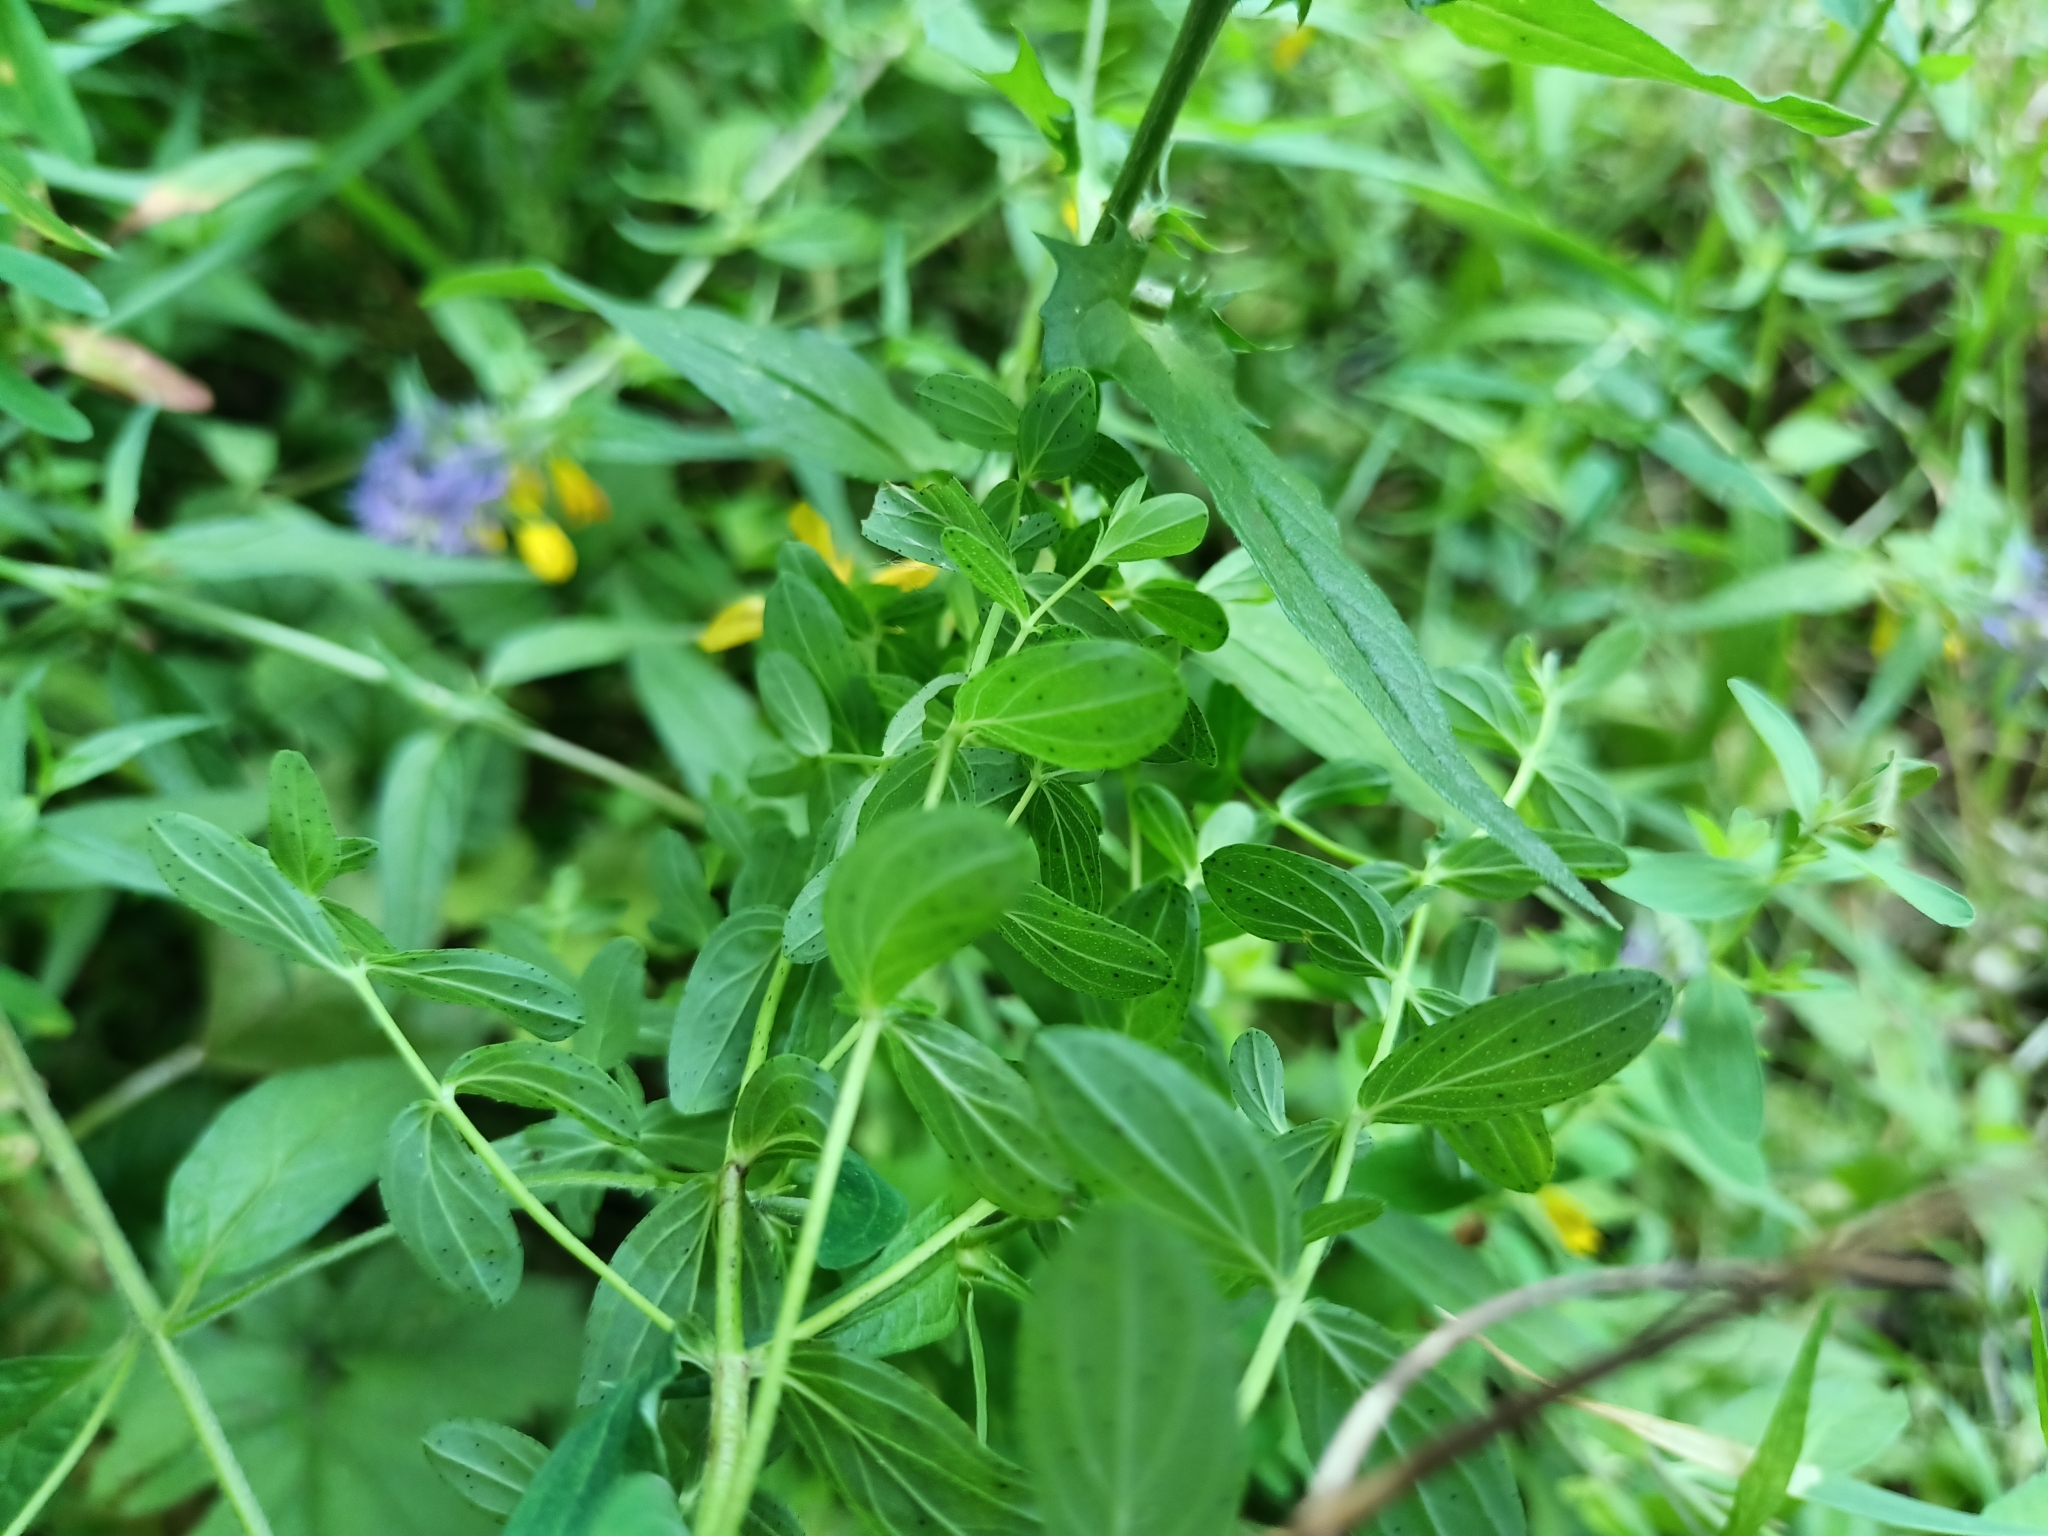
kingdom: Plantae
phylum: Tracheophyta
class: Magnoliopsida
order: Malpighiales
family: Hypericaceae
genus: Hypericum
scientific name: Hypericum perforatum
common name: Common st. johnswort
